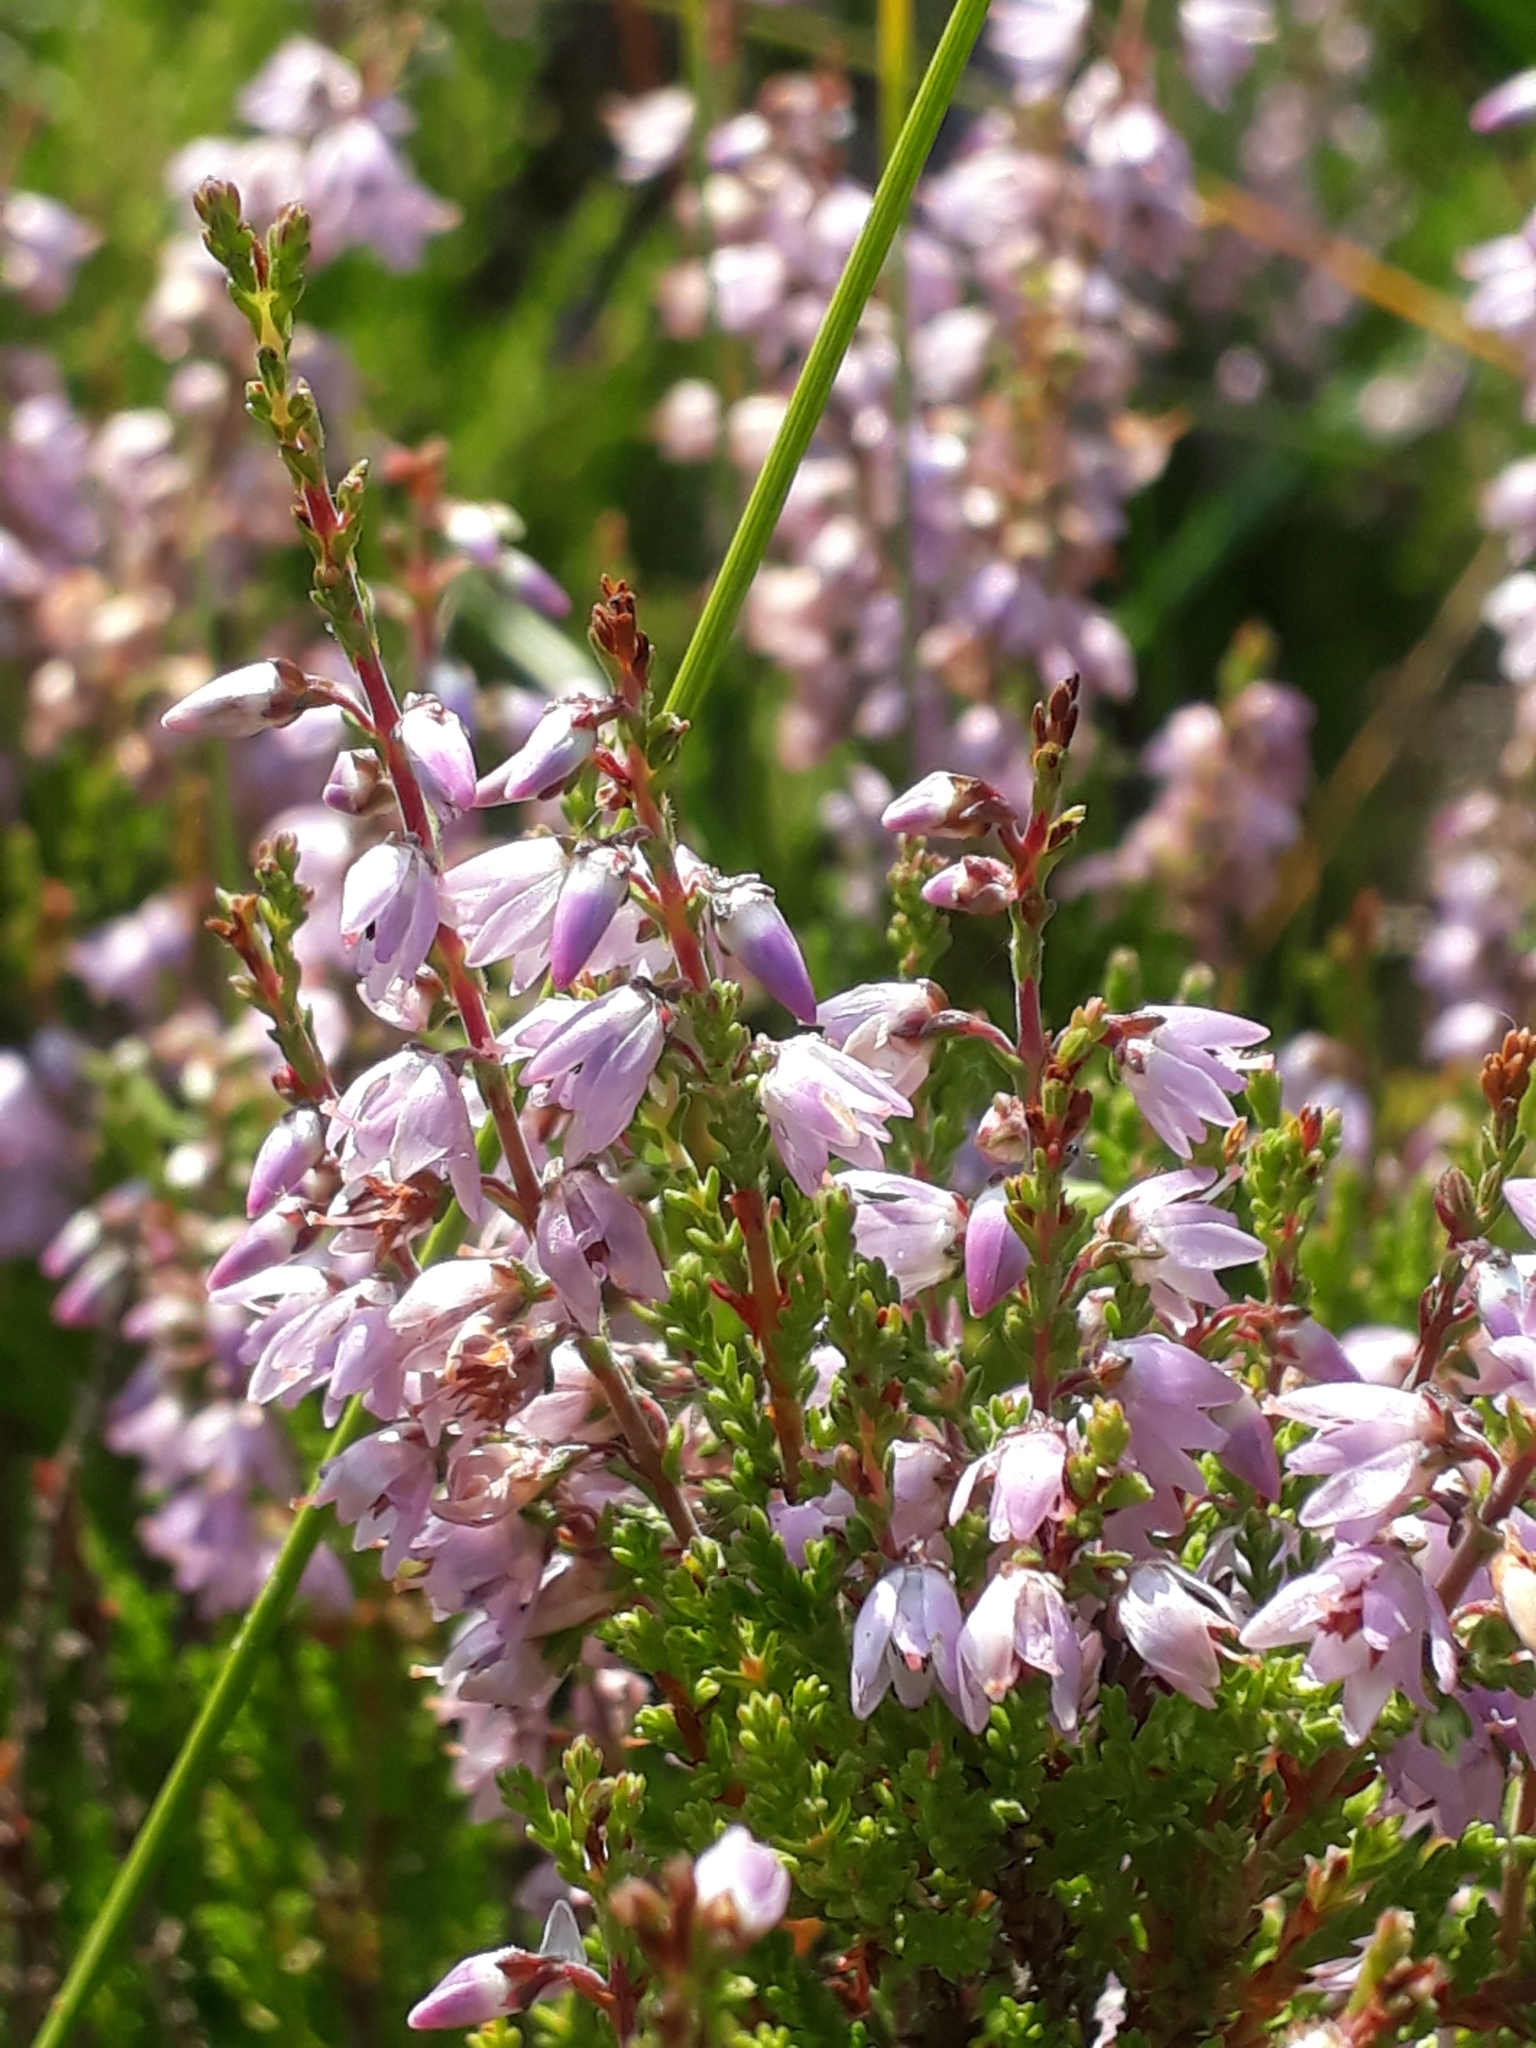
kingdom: Plantae
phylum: Tracheophyta
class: Magnoliopsida
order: Ericales
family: Ericaceae
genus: Calluna
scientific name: Calluna vulgaris
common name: Heather
